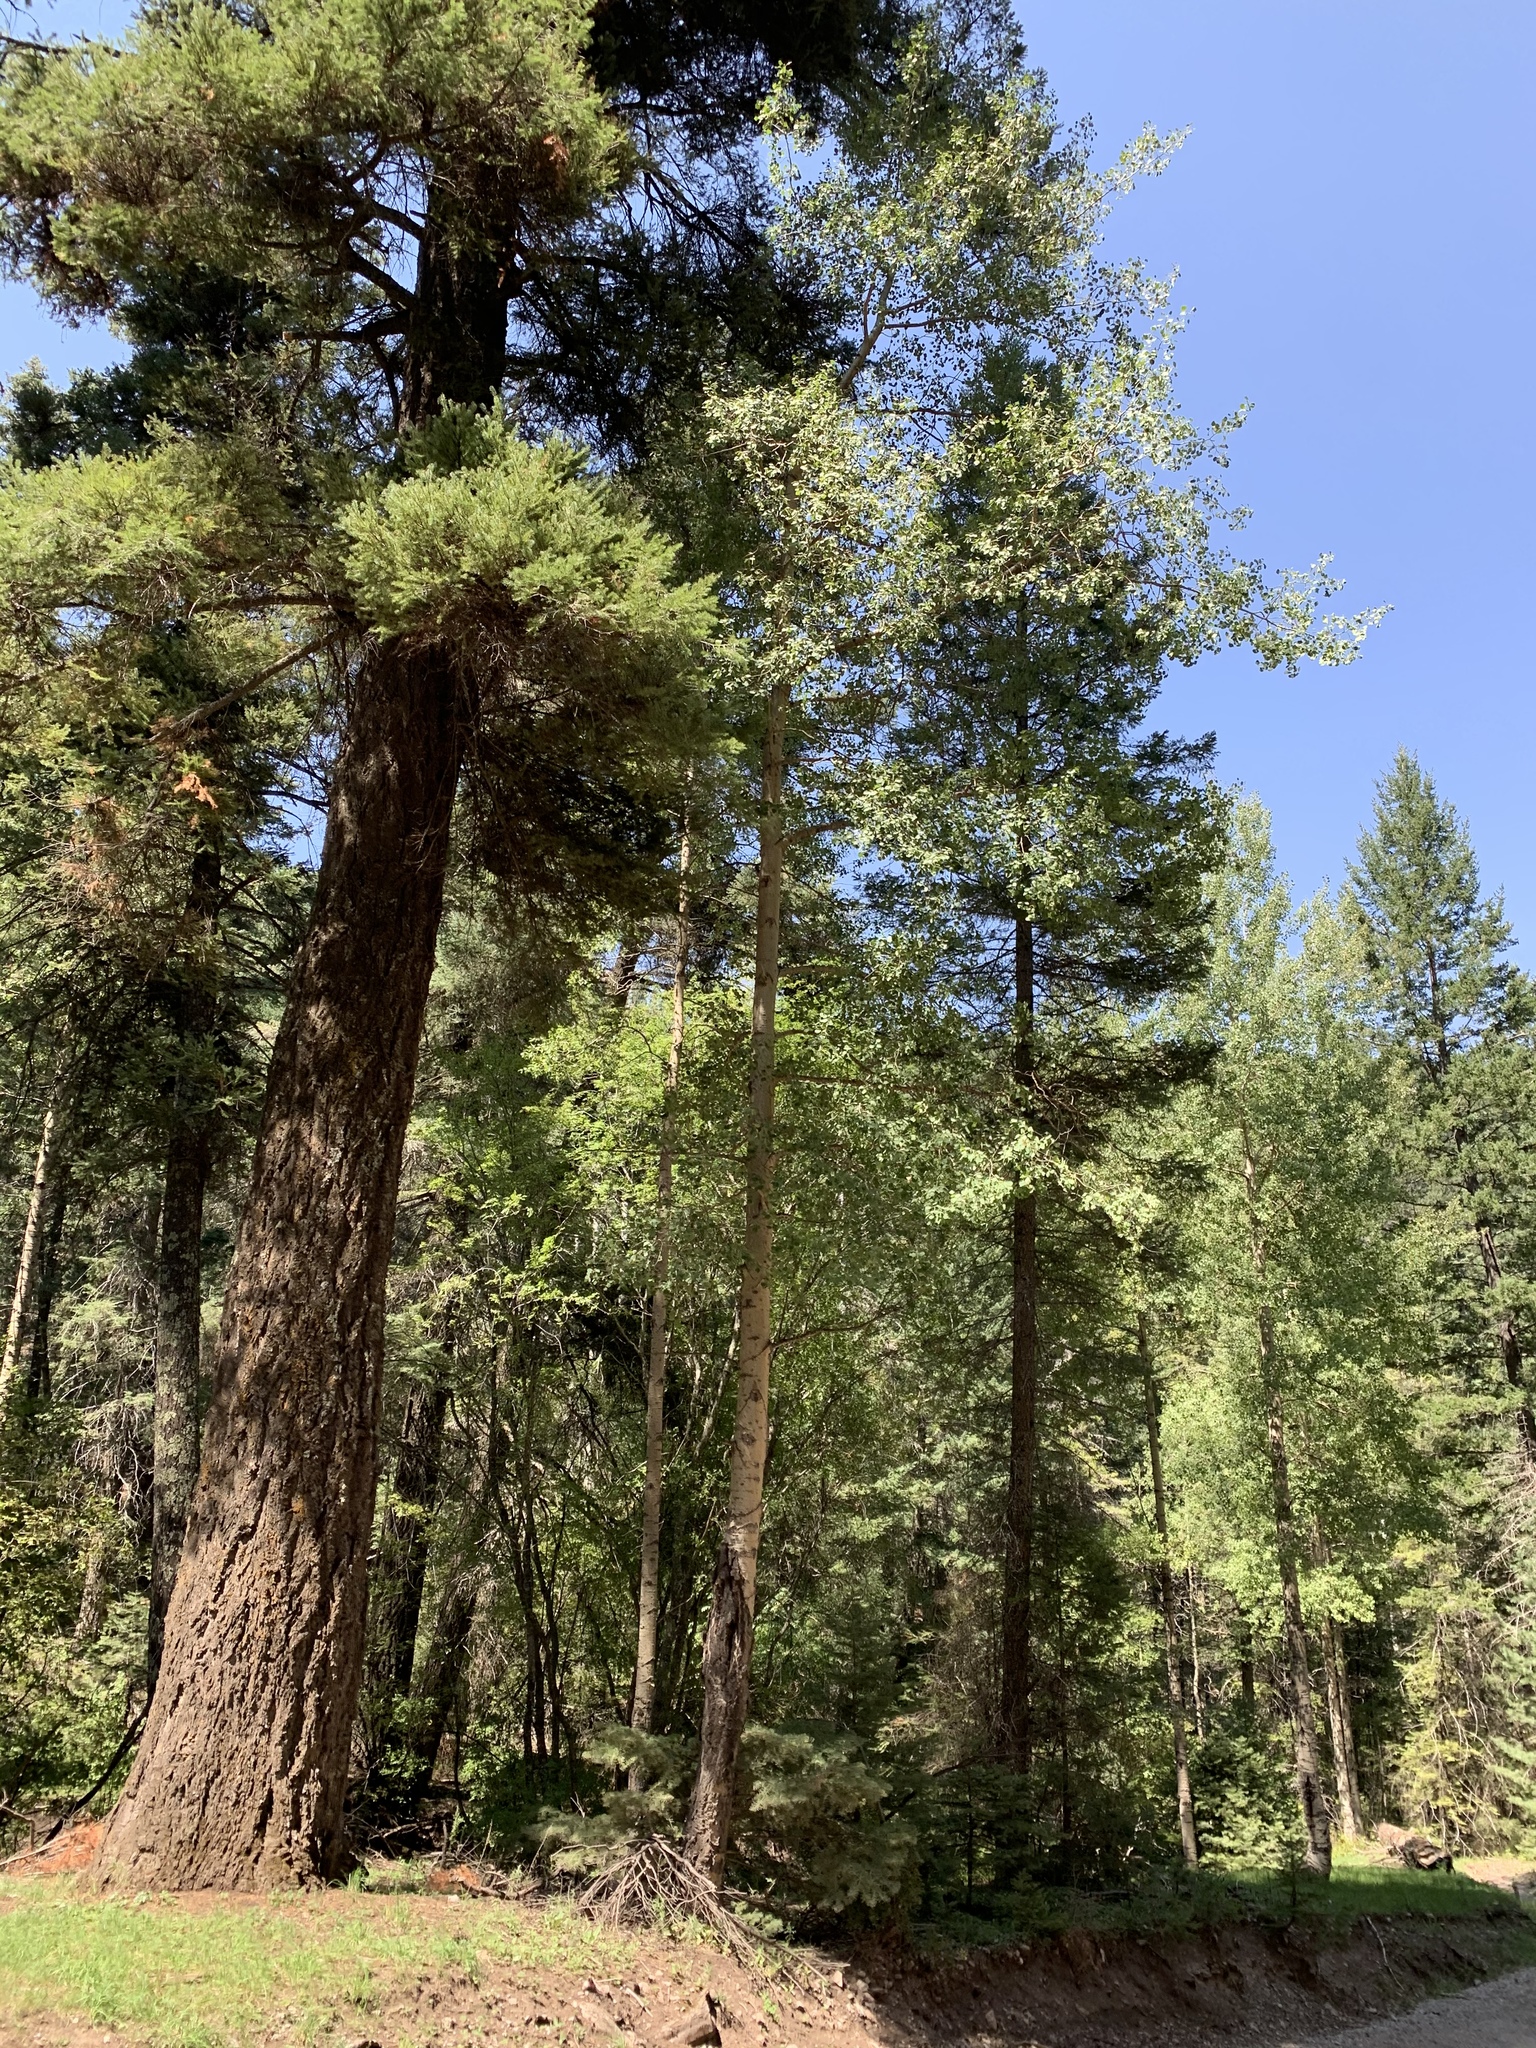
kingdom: Plantae
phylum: Tracheophyta
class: Magnoliopsida
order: Malpighiales
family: Salicaceae
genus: Populus
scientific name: Populus tremuloides
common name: Quaking aspen
